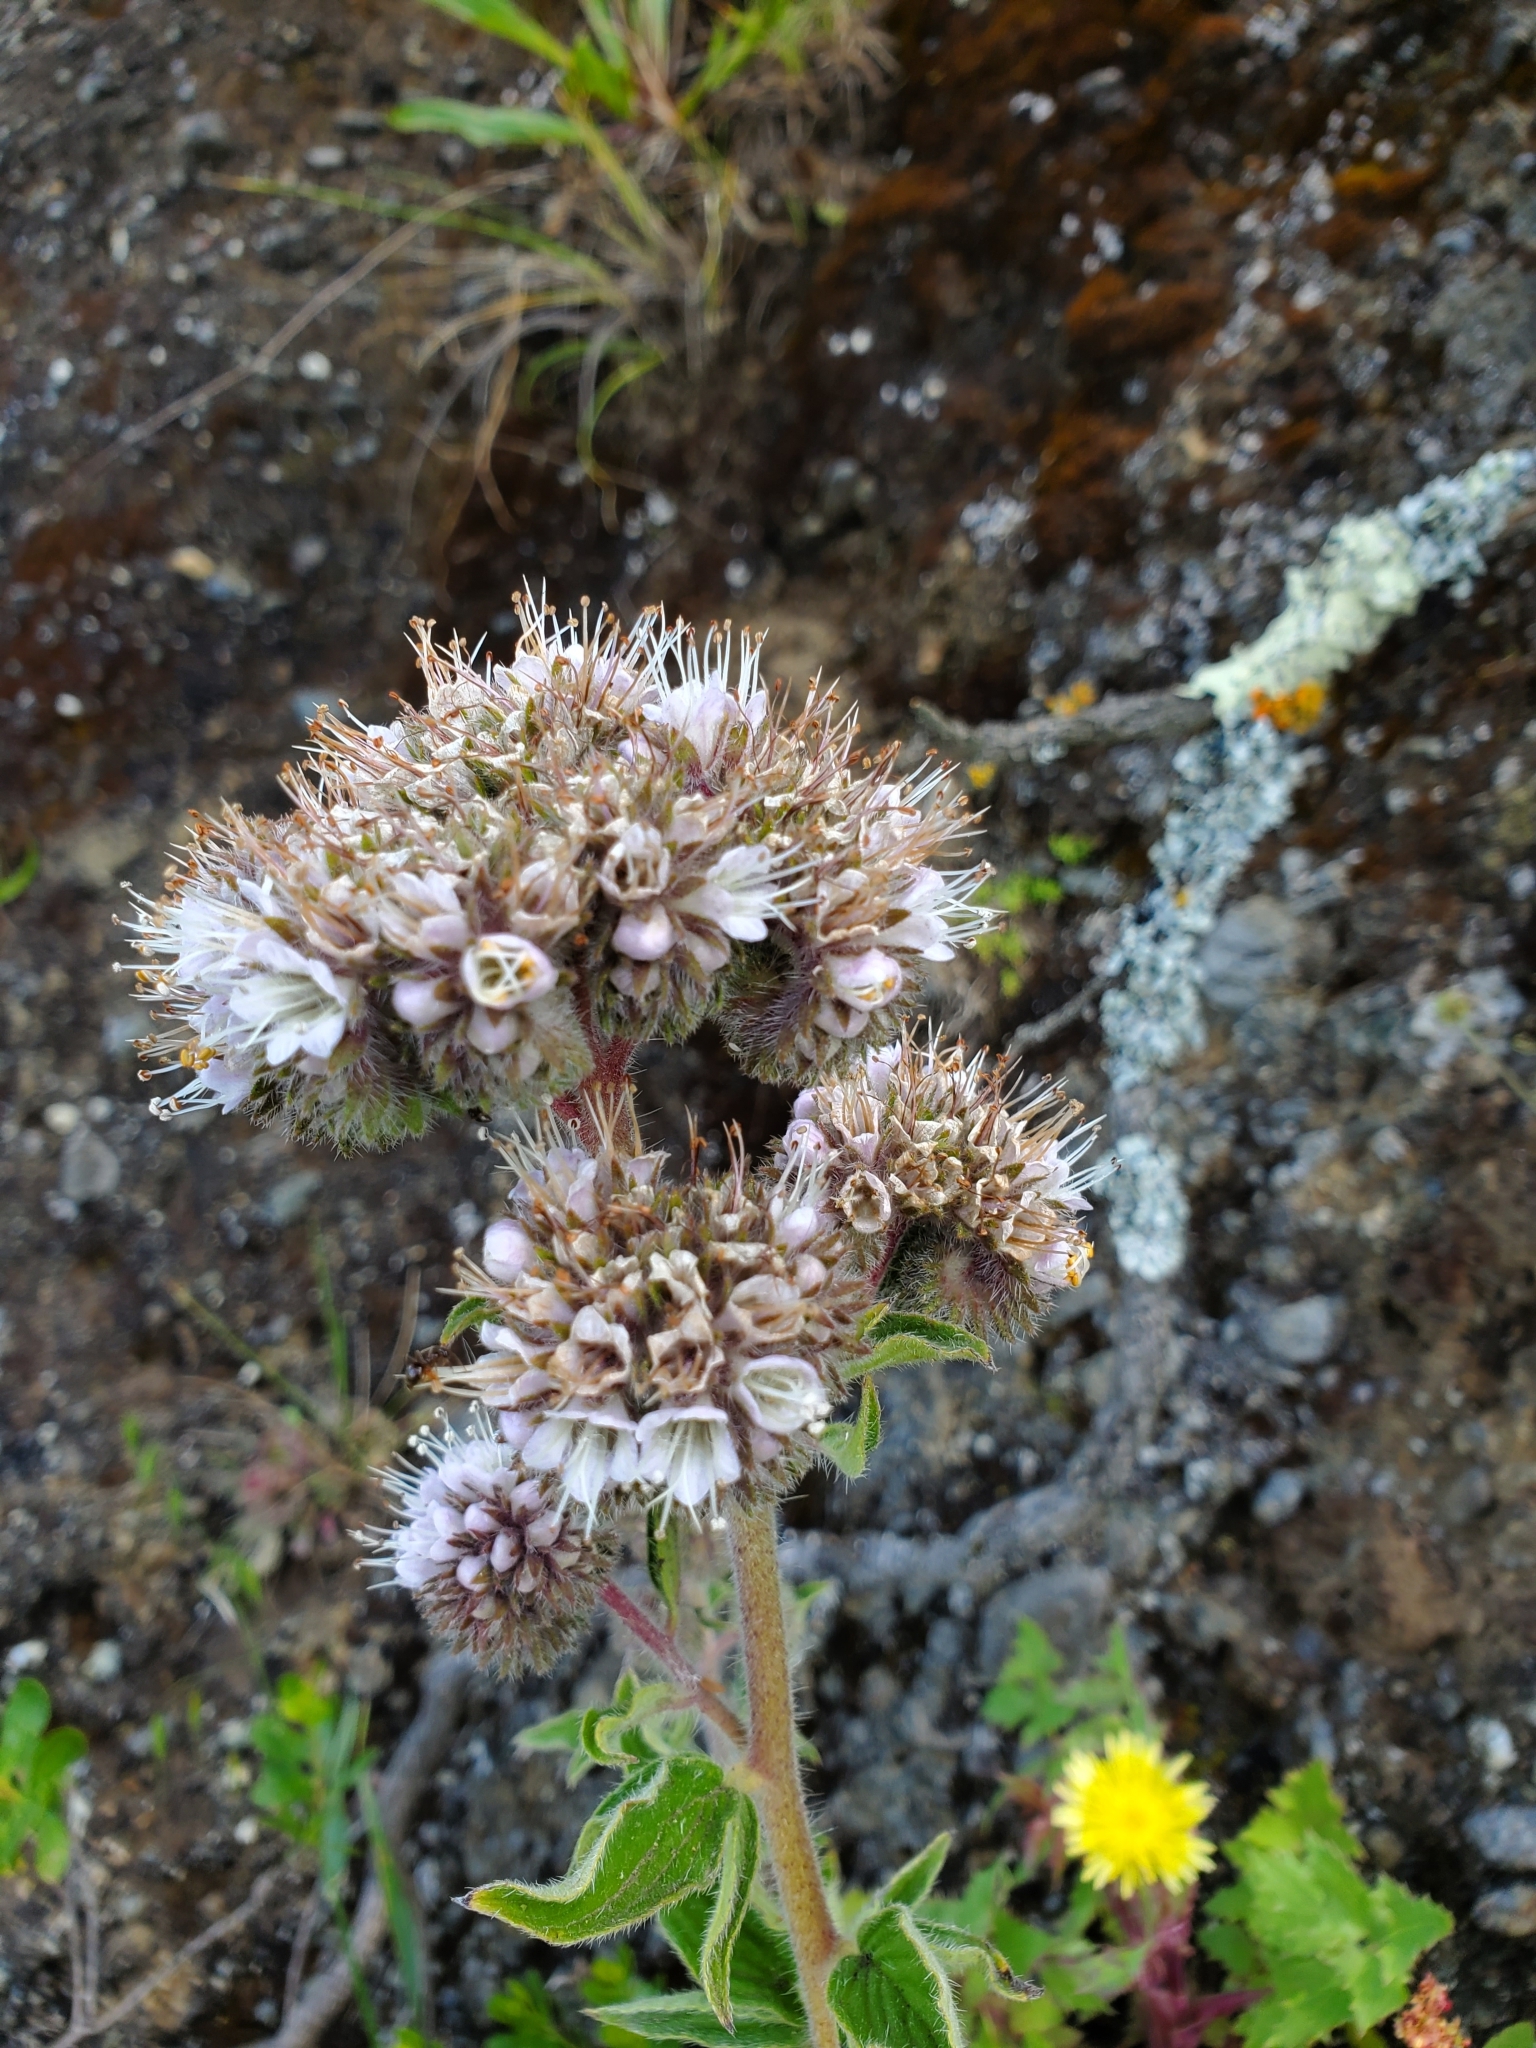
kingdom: Plantae
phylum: Tracheophyta
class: Magnoliopsida
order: Boraginales
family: Hydrophyllaceae
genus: Phacelia
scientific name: Phacelia californica
